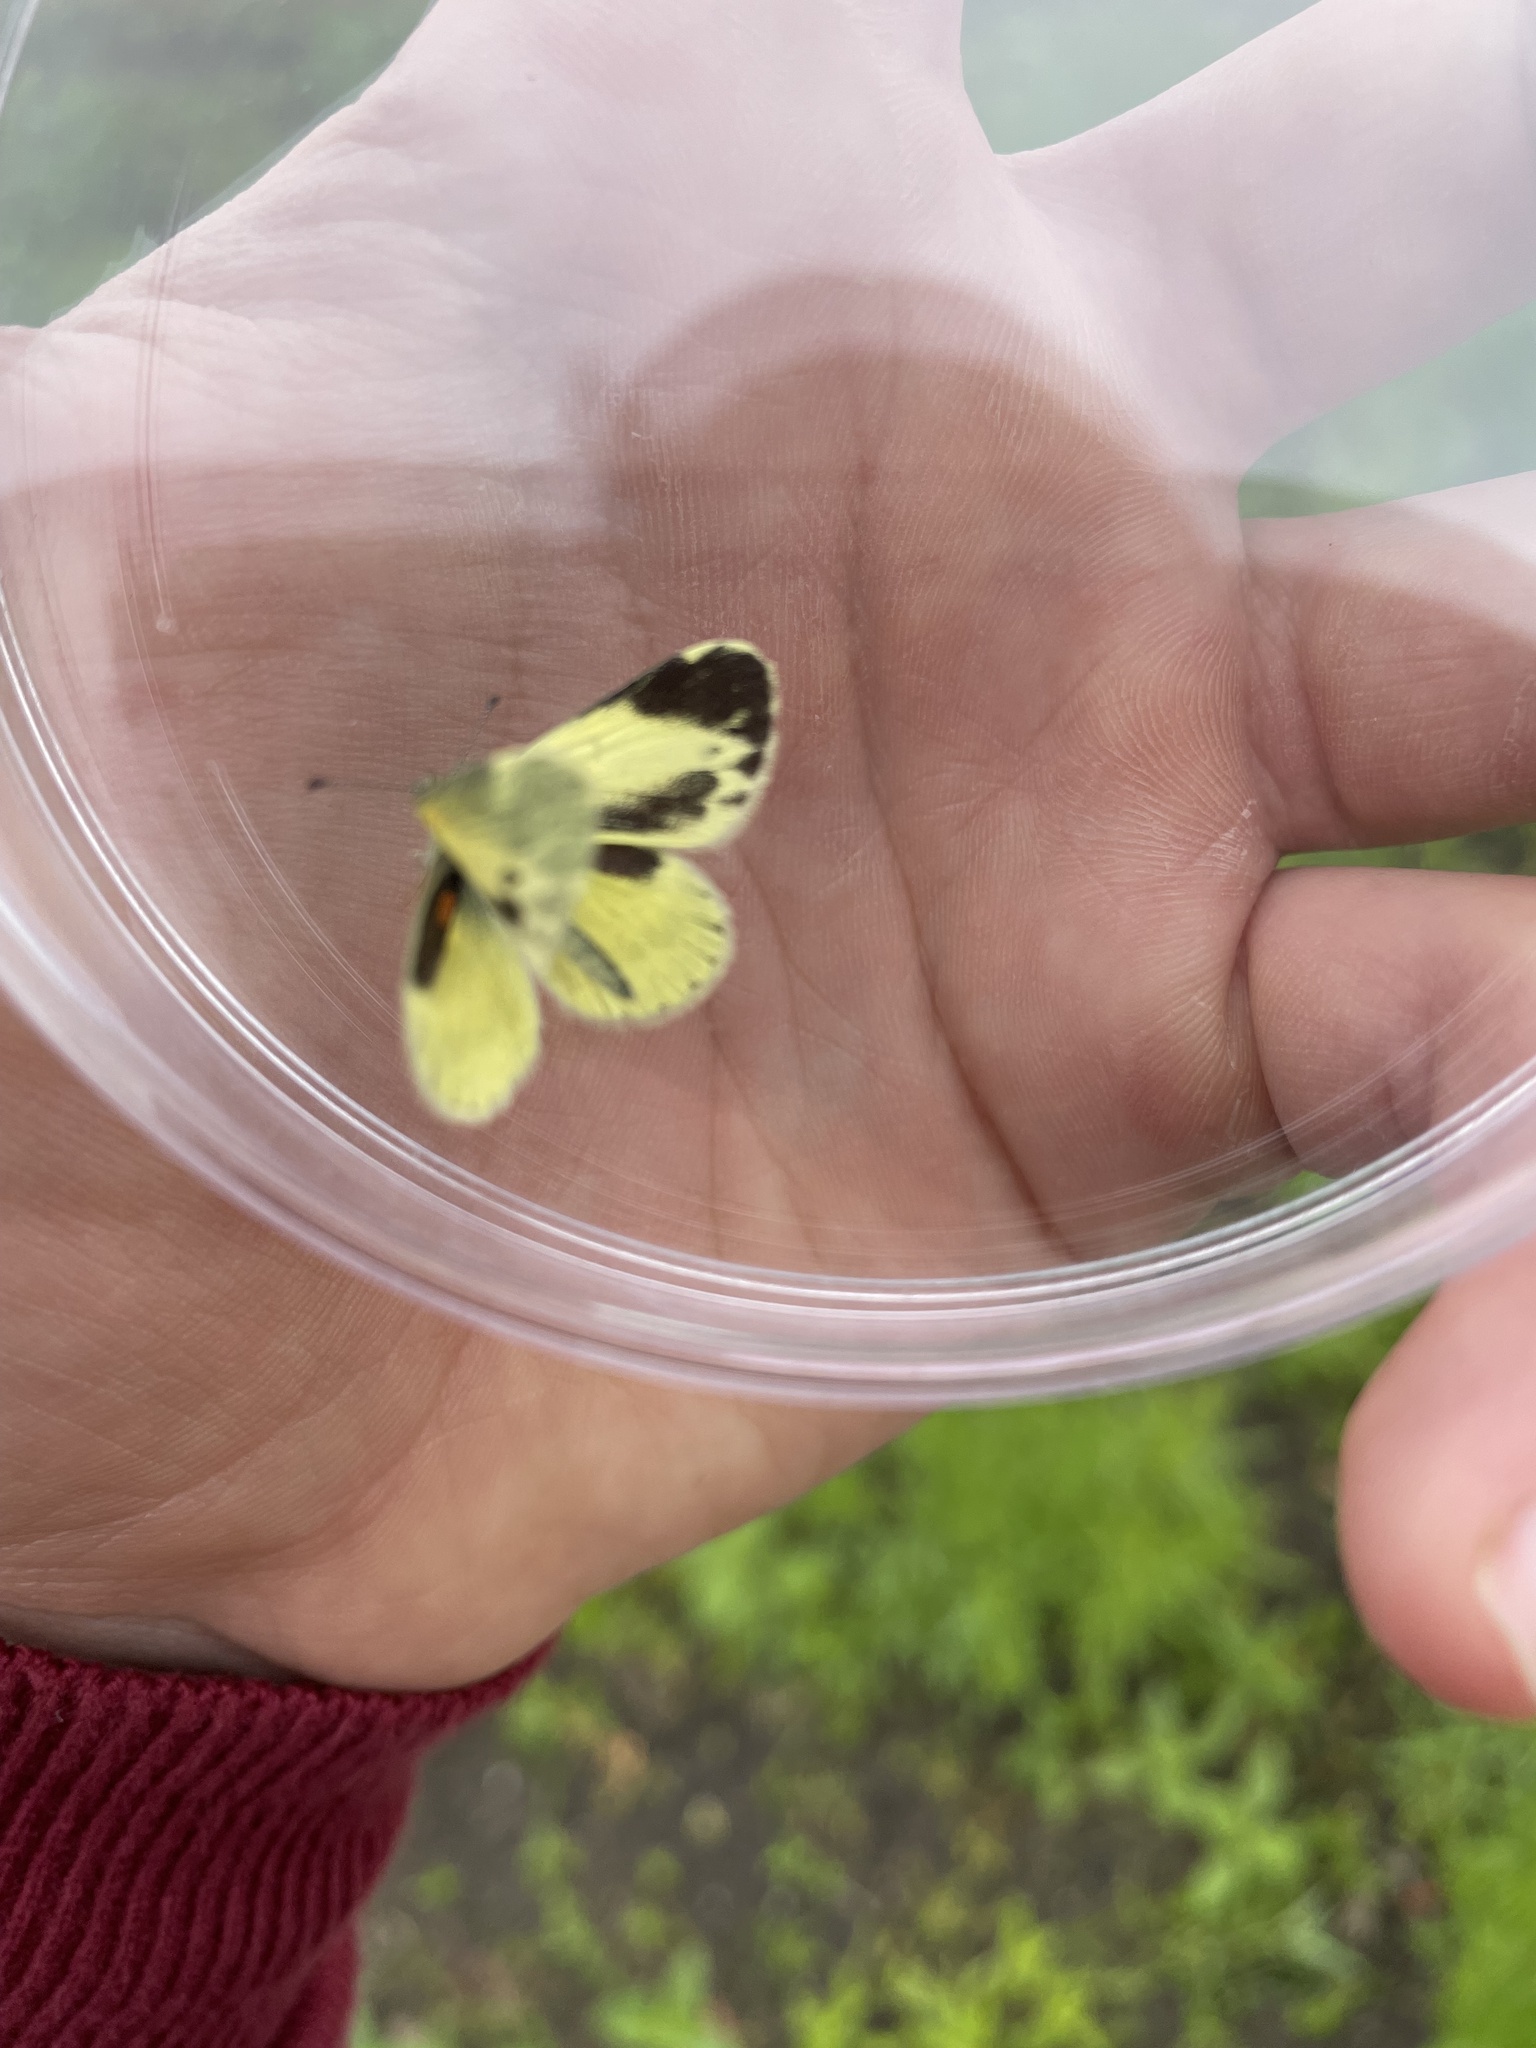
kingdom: Animalia
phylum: Arthropoda
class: Insecta
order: Lepidoptera
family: Pieridae
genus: Nathalis
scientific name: Nathalis iole
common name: Dainty sulphur
